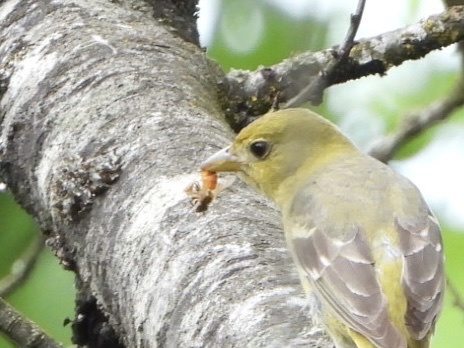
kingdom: Animalia
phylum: Arthropoda
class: Insecta
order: Hymenoptera
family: Apidae
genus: Apis
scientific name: Apis mellifera
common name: Honey bee
